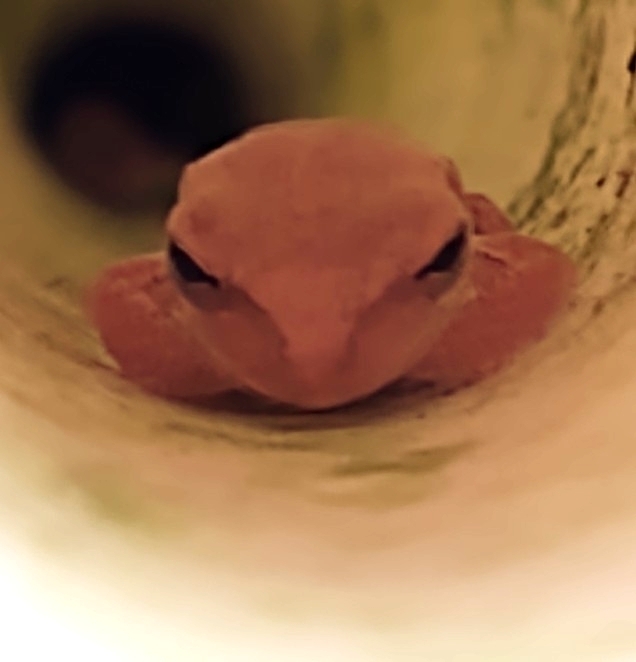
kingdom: Animalia
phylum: Chordata
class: Amphibia
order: Anura
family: Hylidae
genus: Osteopilus
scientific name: Osteopilus septentrionalis
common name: Cuban treefrog
